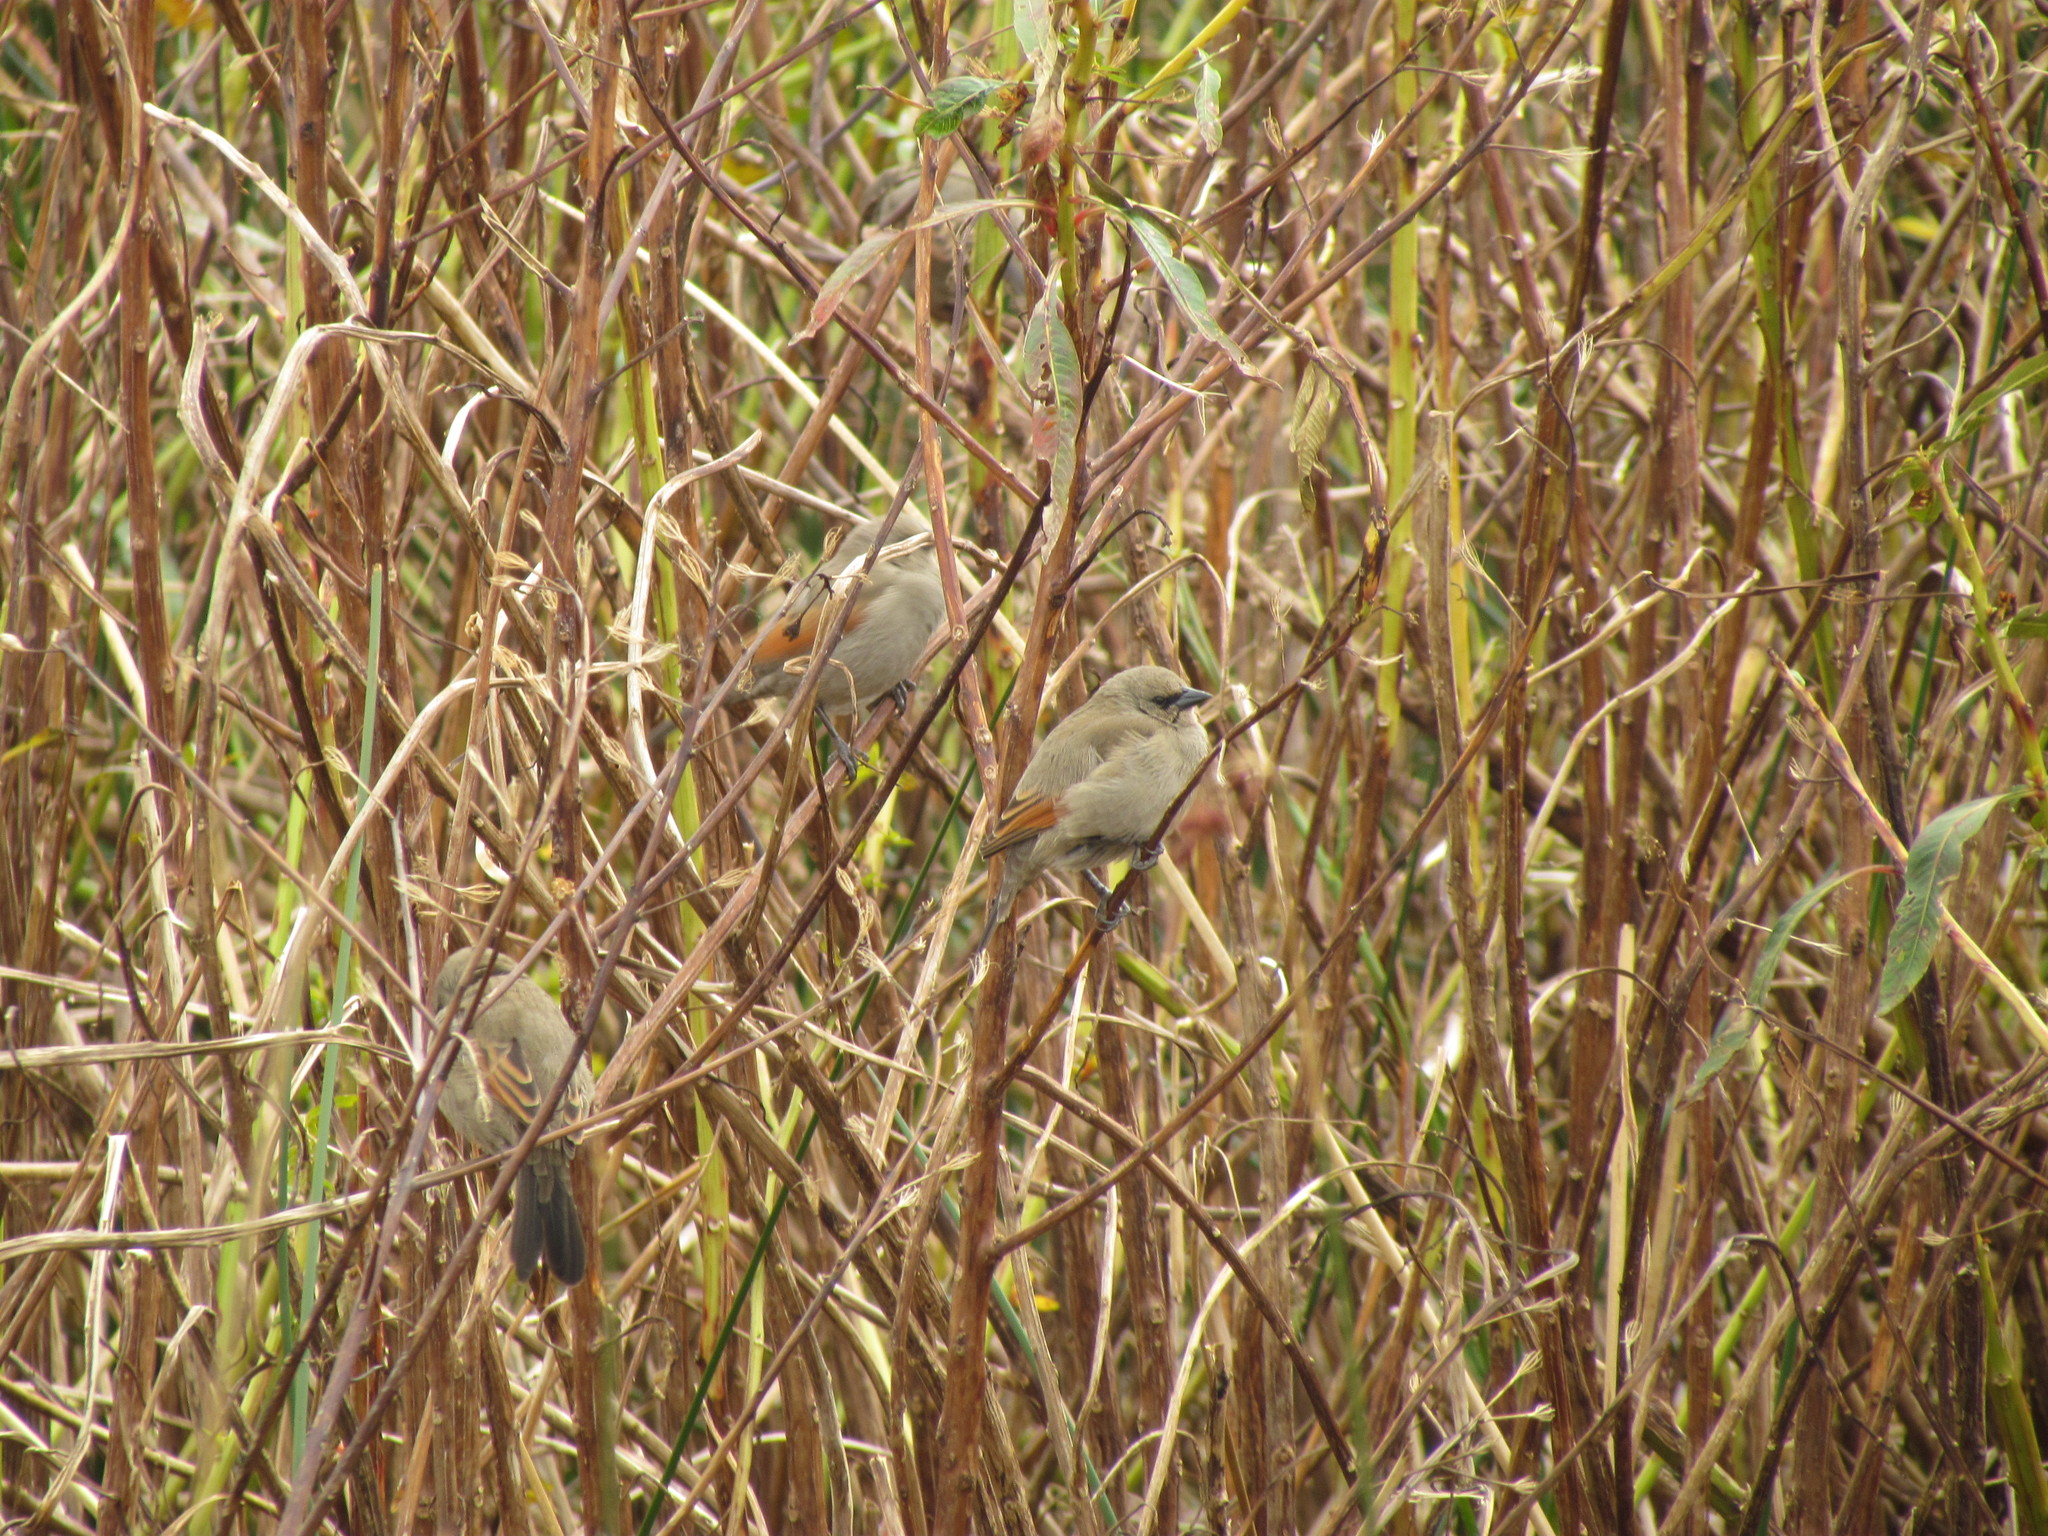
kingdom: Animalia
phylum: Chordata
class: Aves
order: Passeriformes
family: Icteridae
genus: Agelaioides
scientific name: Agelaioides badius
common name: Baywing
